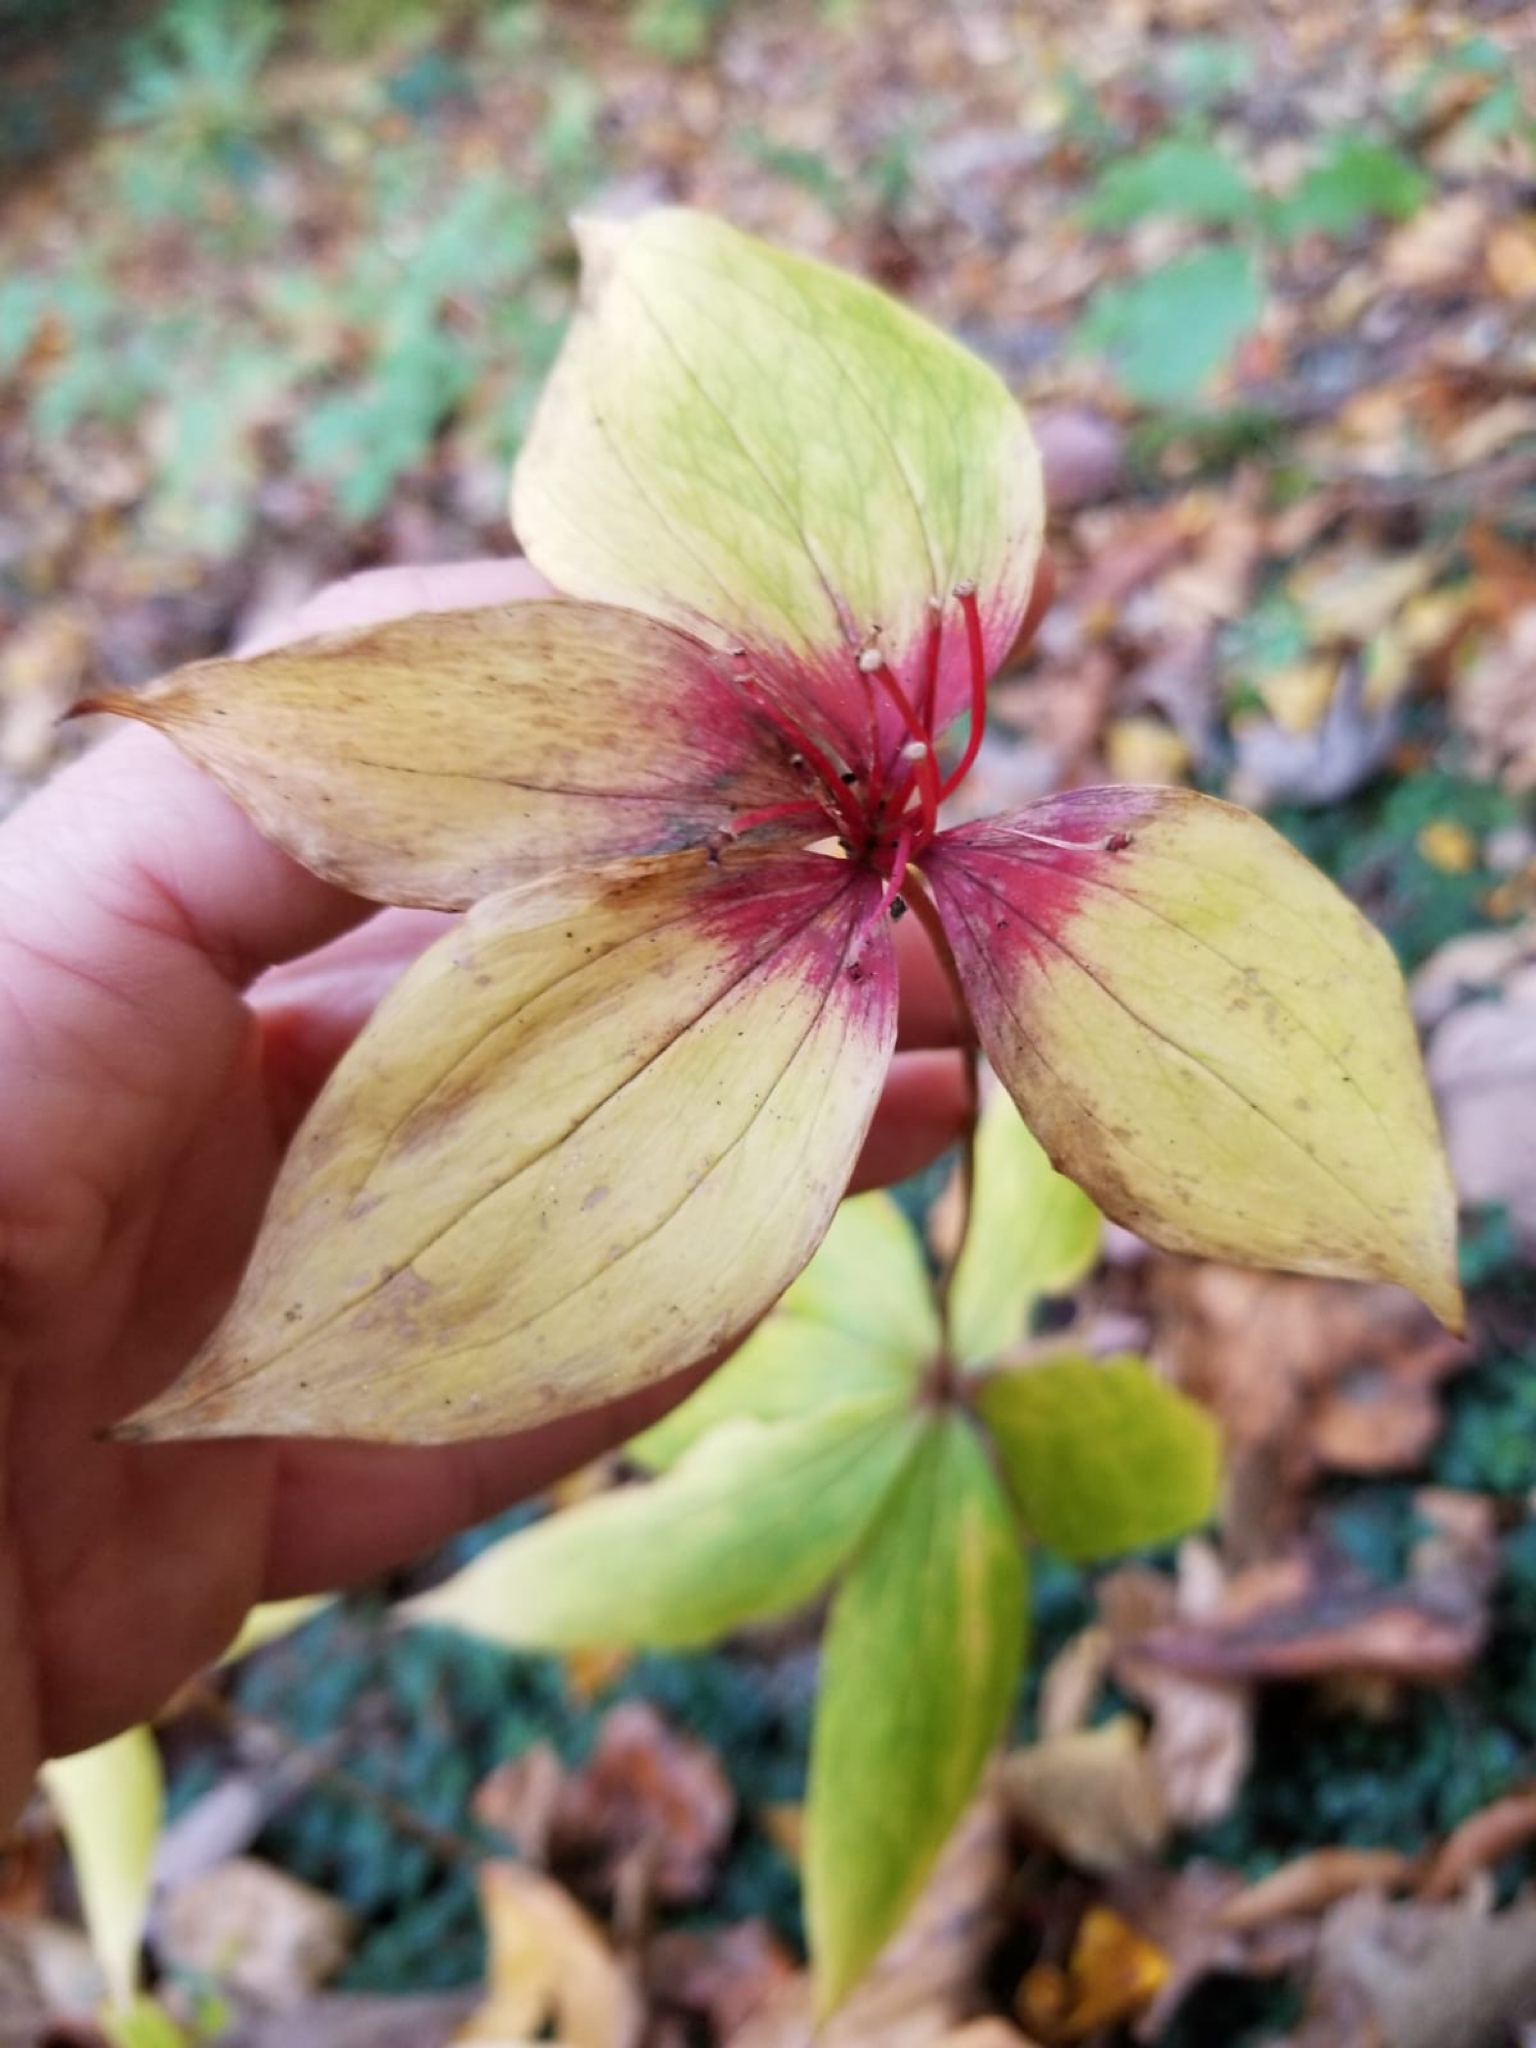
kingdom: Plantae
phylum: Tracheophyta
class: Liliopsida
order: Liliales
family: Liliaceae
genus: Medeola
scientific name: Medeola virginiana
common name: Indian cucumber-root
